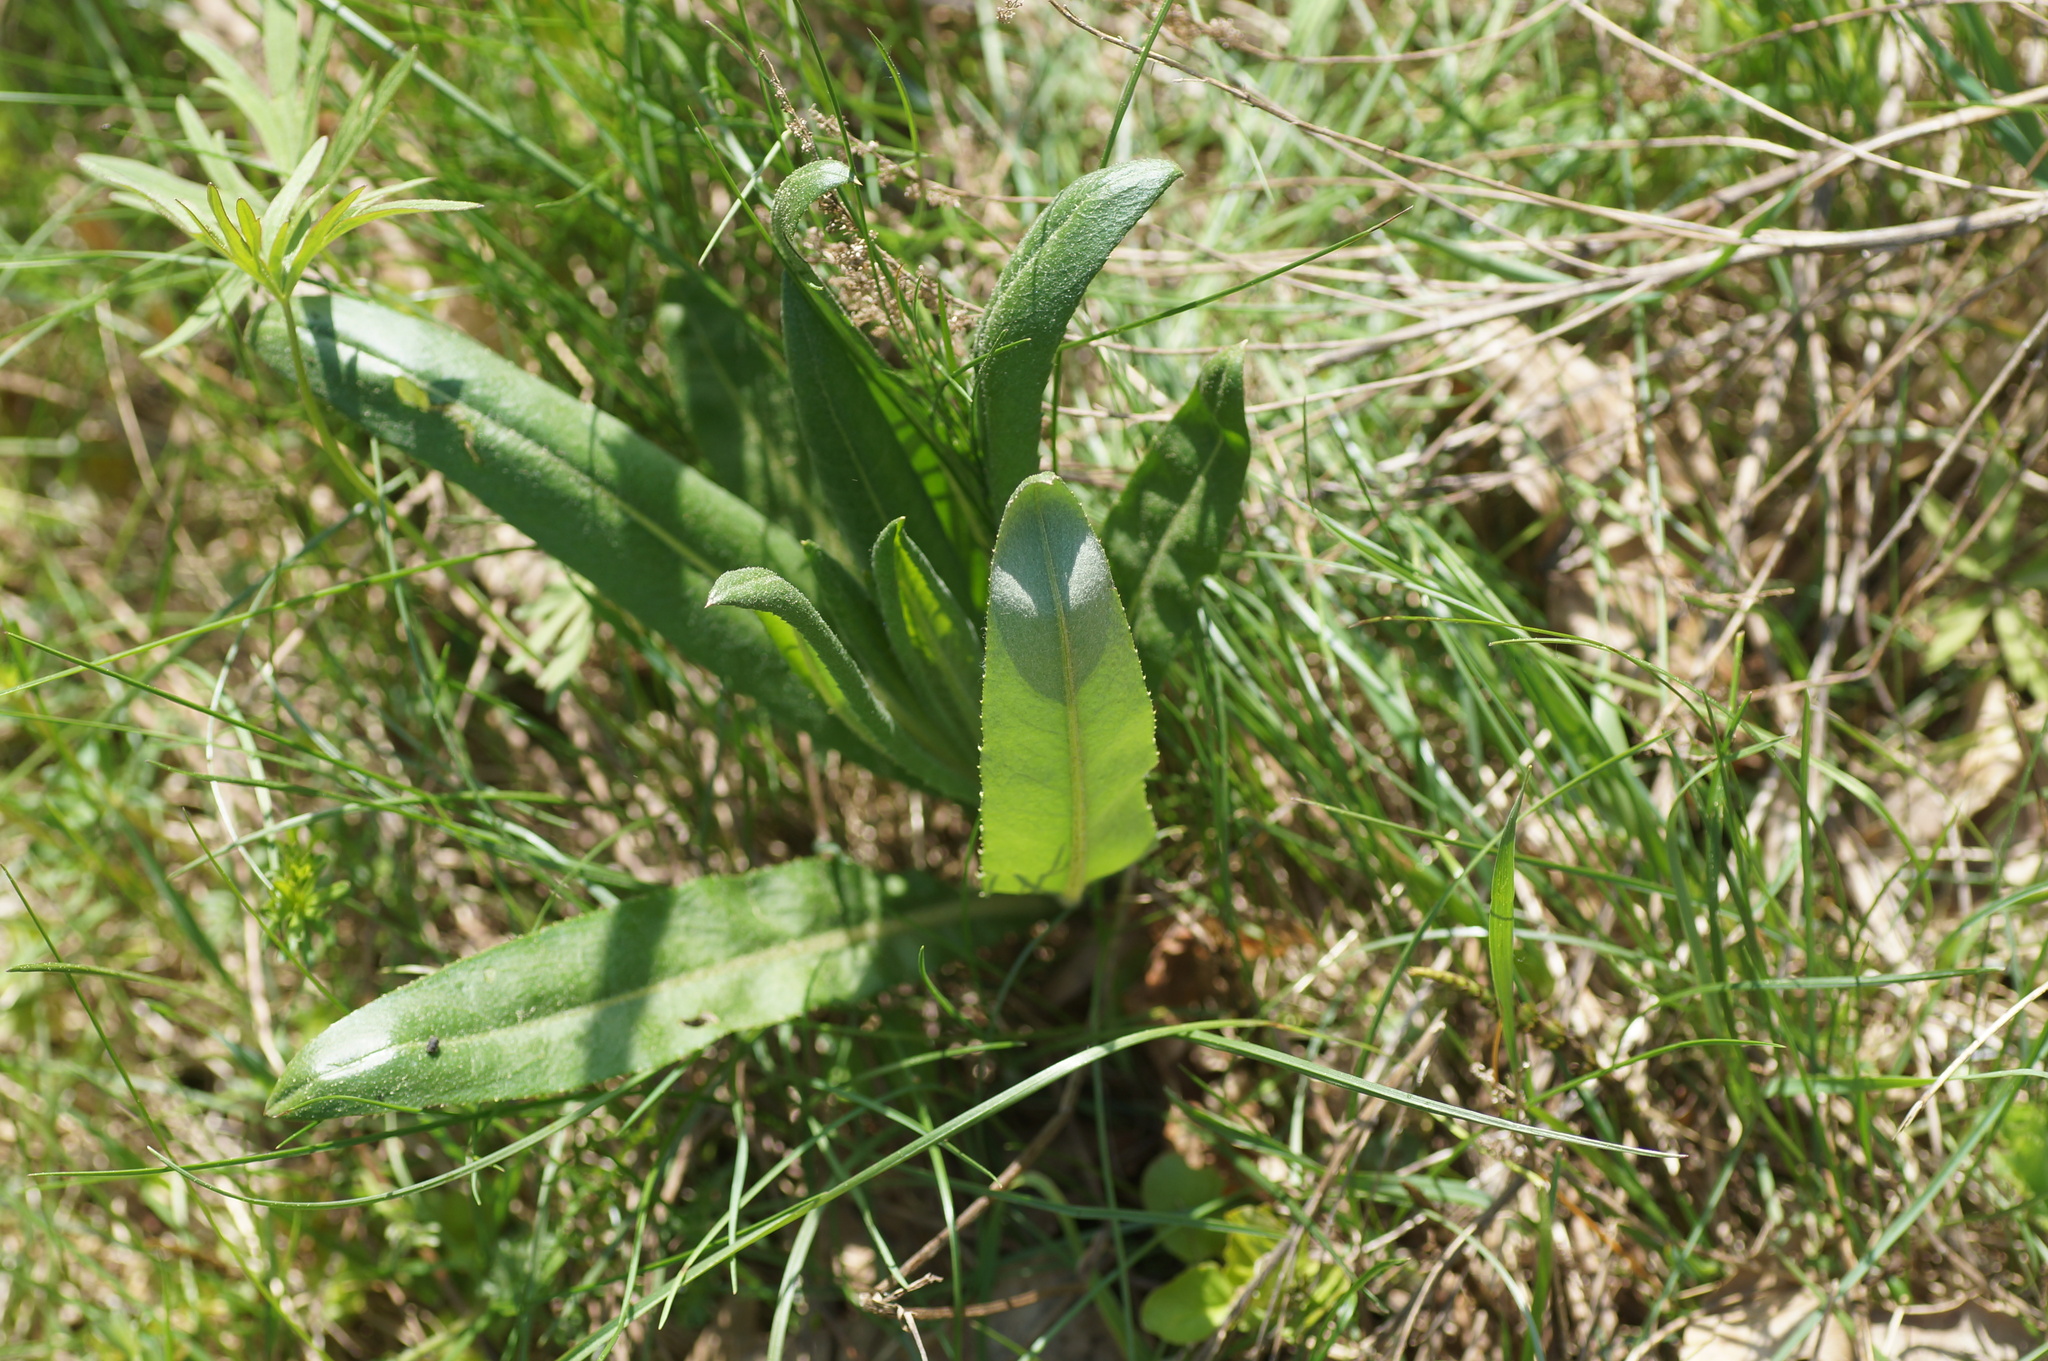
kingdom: Plantae
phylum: Tracheophyta
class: Magnoliopsida
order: Asterales
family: Asteraceae
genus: Cirsium
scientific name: Cirsium arvense
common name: Creeping thistle
